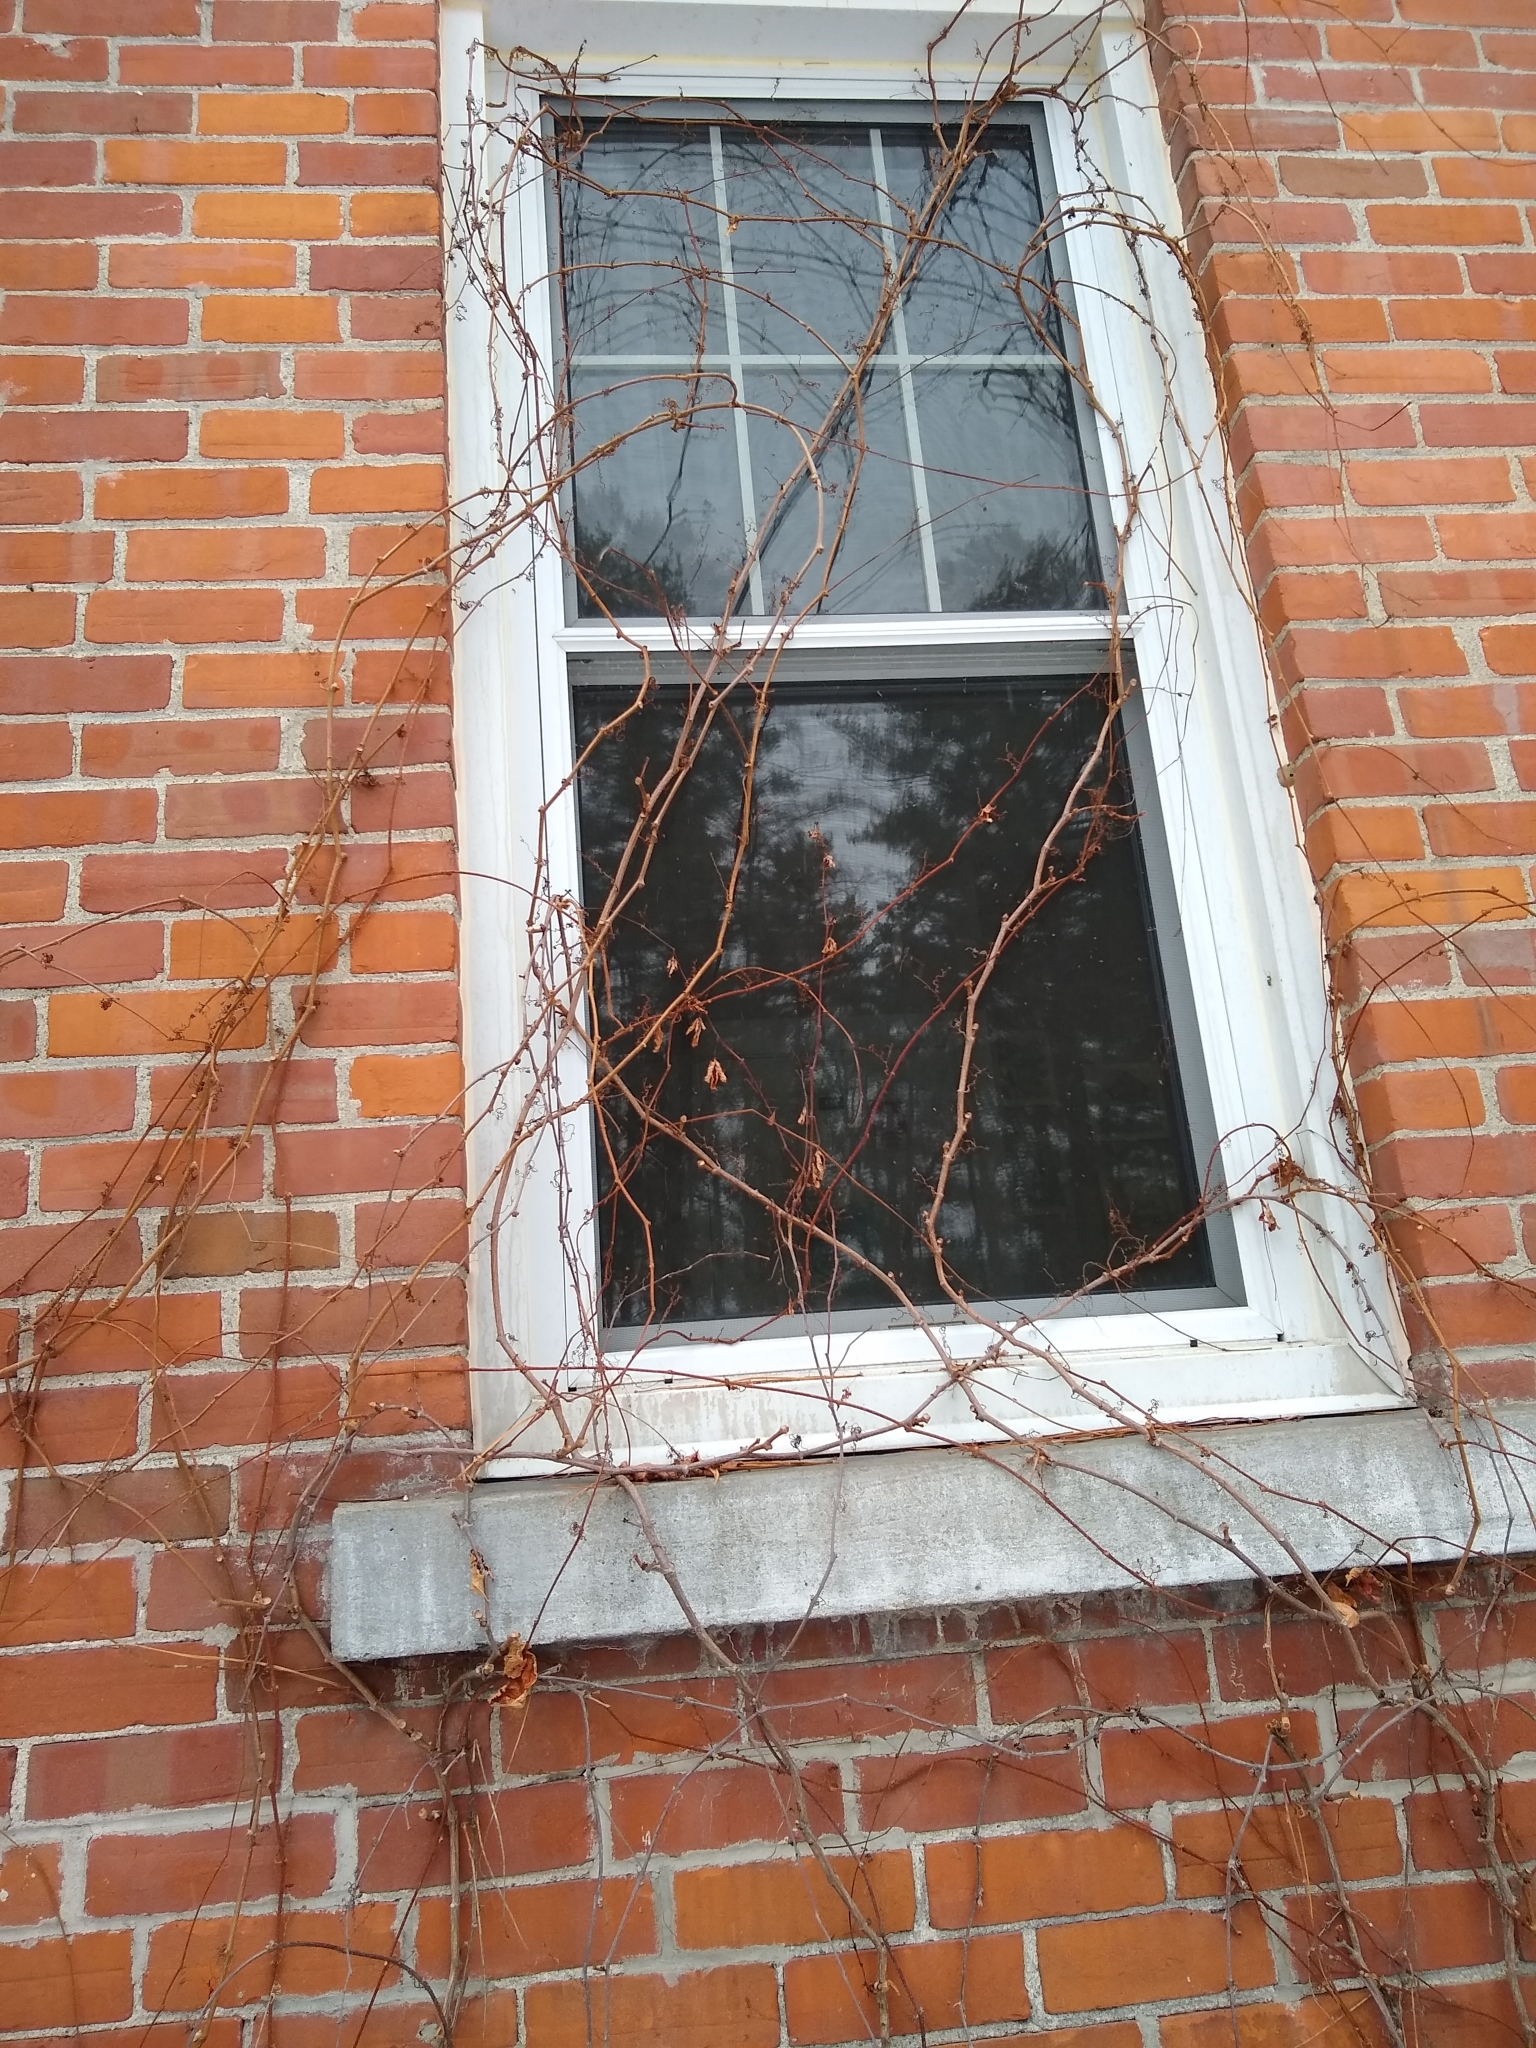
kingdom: Plantae
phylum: Tracheophyta
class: Magnoliopsida
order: Vitales
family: Vitaceae
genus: Parthenocissus
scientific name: Parthenocissus quinquefolia
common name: Virginia-creeper
